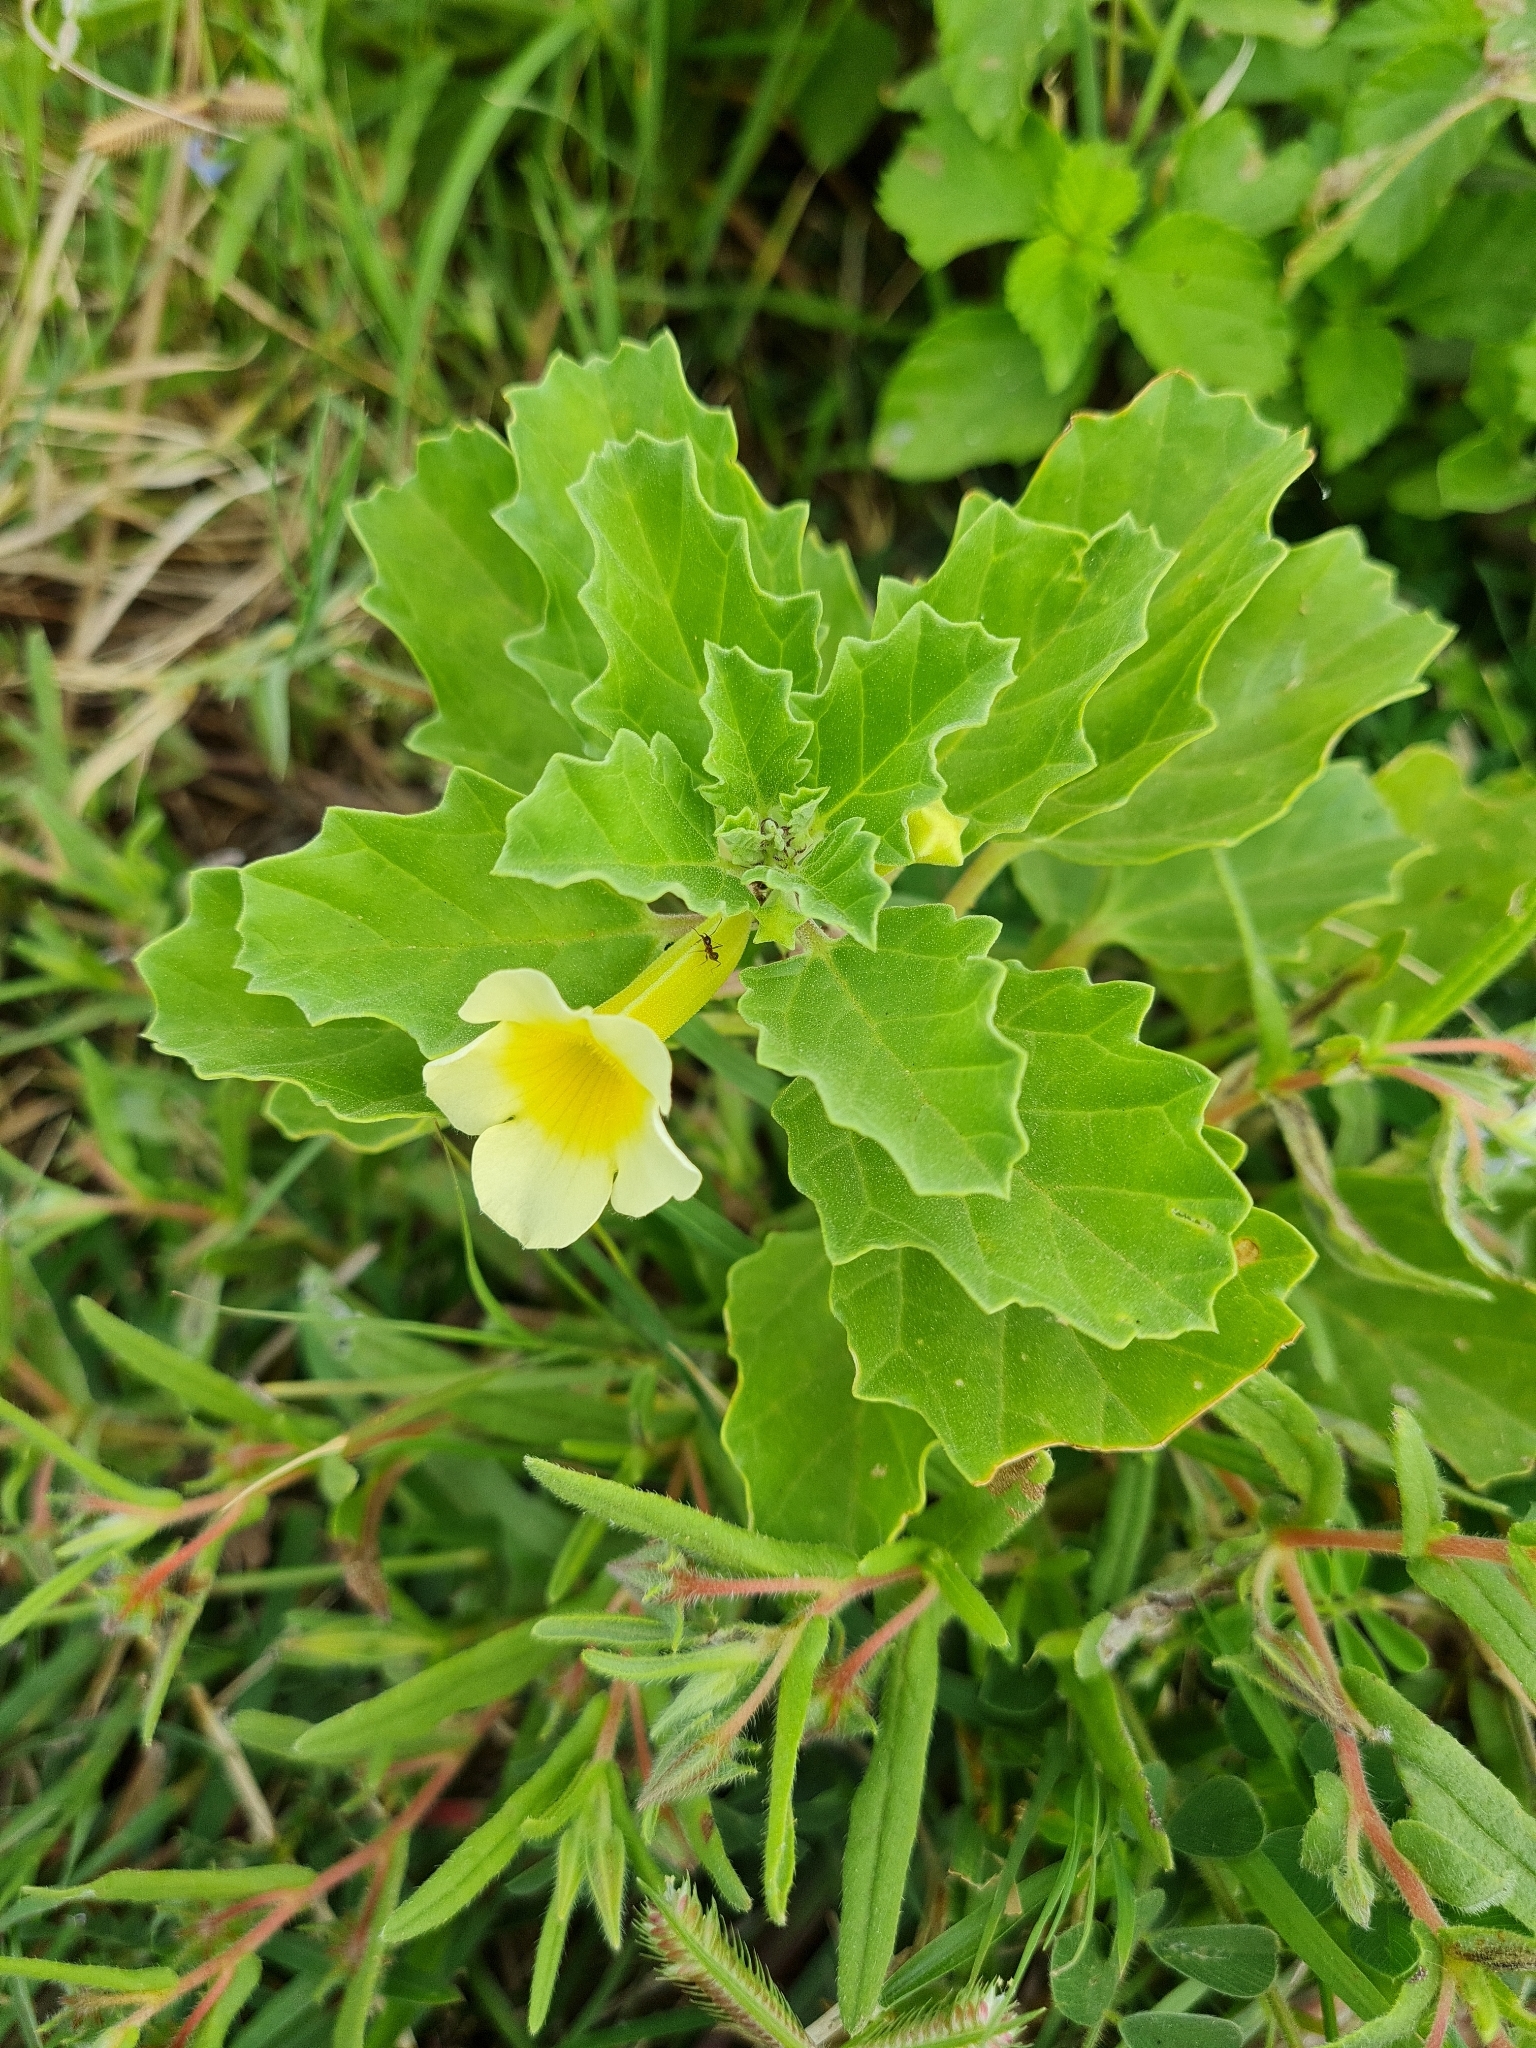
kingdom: Plantae
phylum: Tracheophyta
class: Magnoliopsida
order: Lamiales
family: Pedaliaceae
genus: Pedalium
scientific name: Pedalium murex
